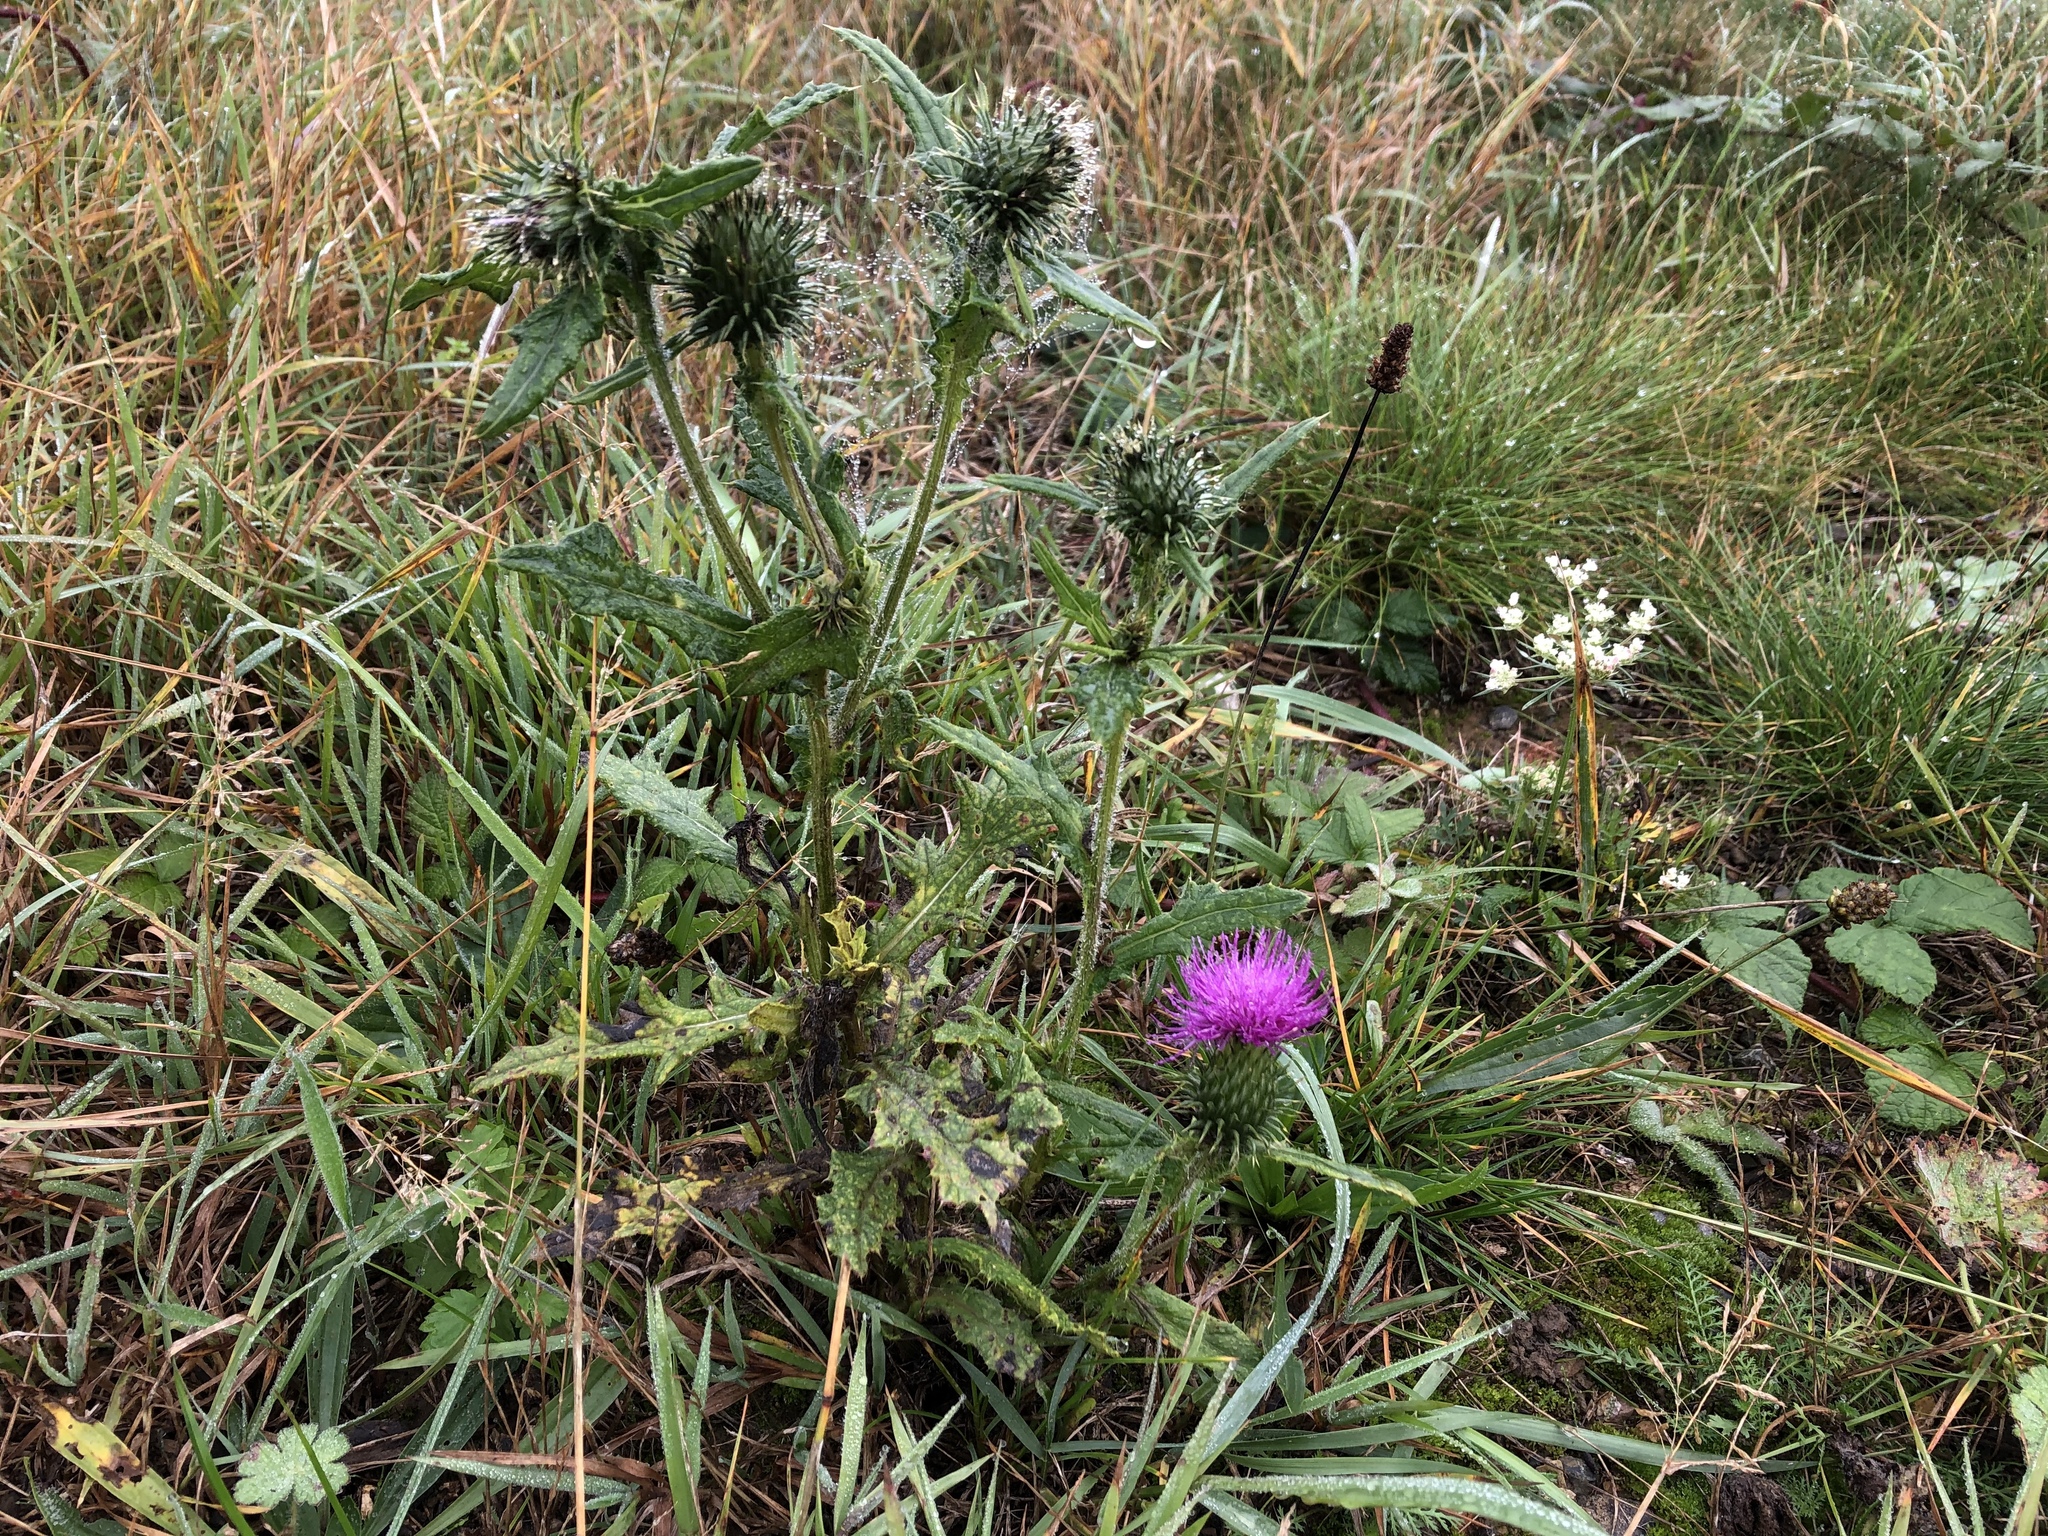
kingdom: Plantae
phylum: Tracheophyta
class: Magnoliopsida
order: Asterales
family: Asteraceae
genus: Cirsium
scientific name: Cirsium vulgare
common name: Bull thistle
